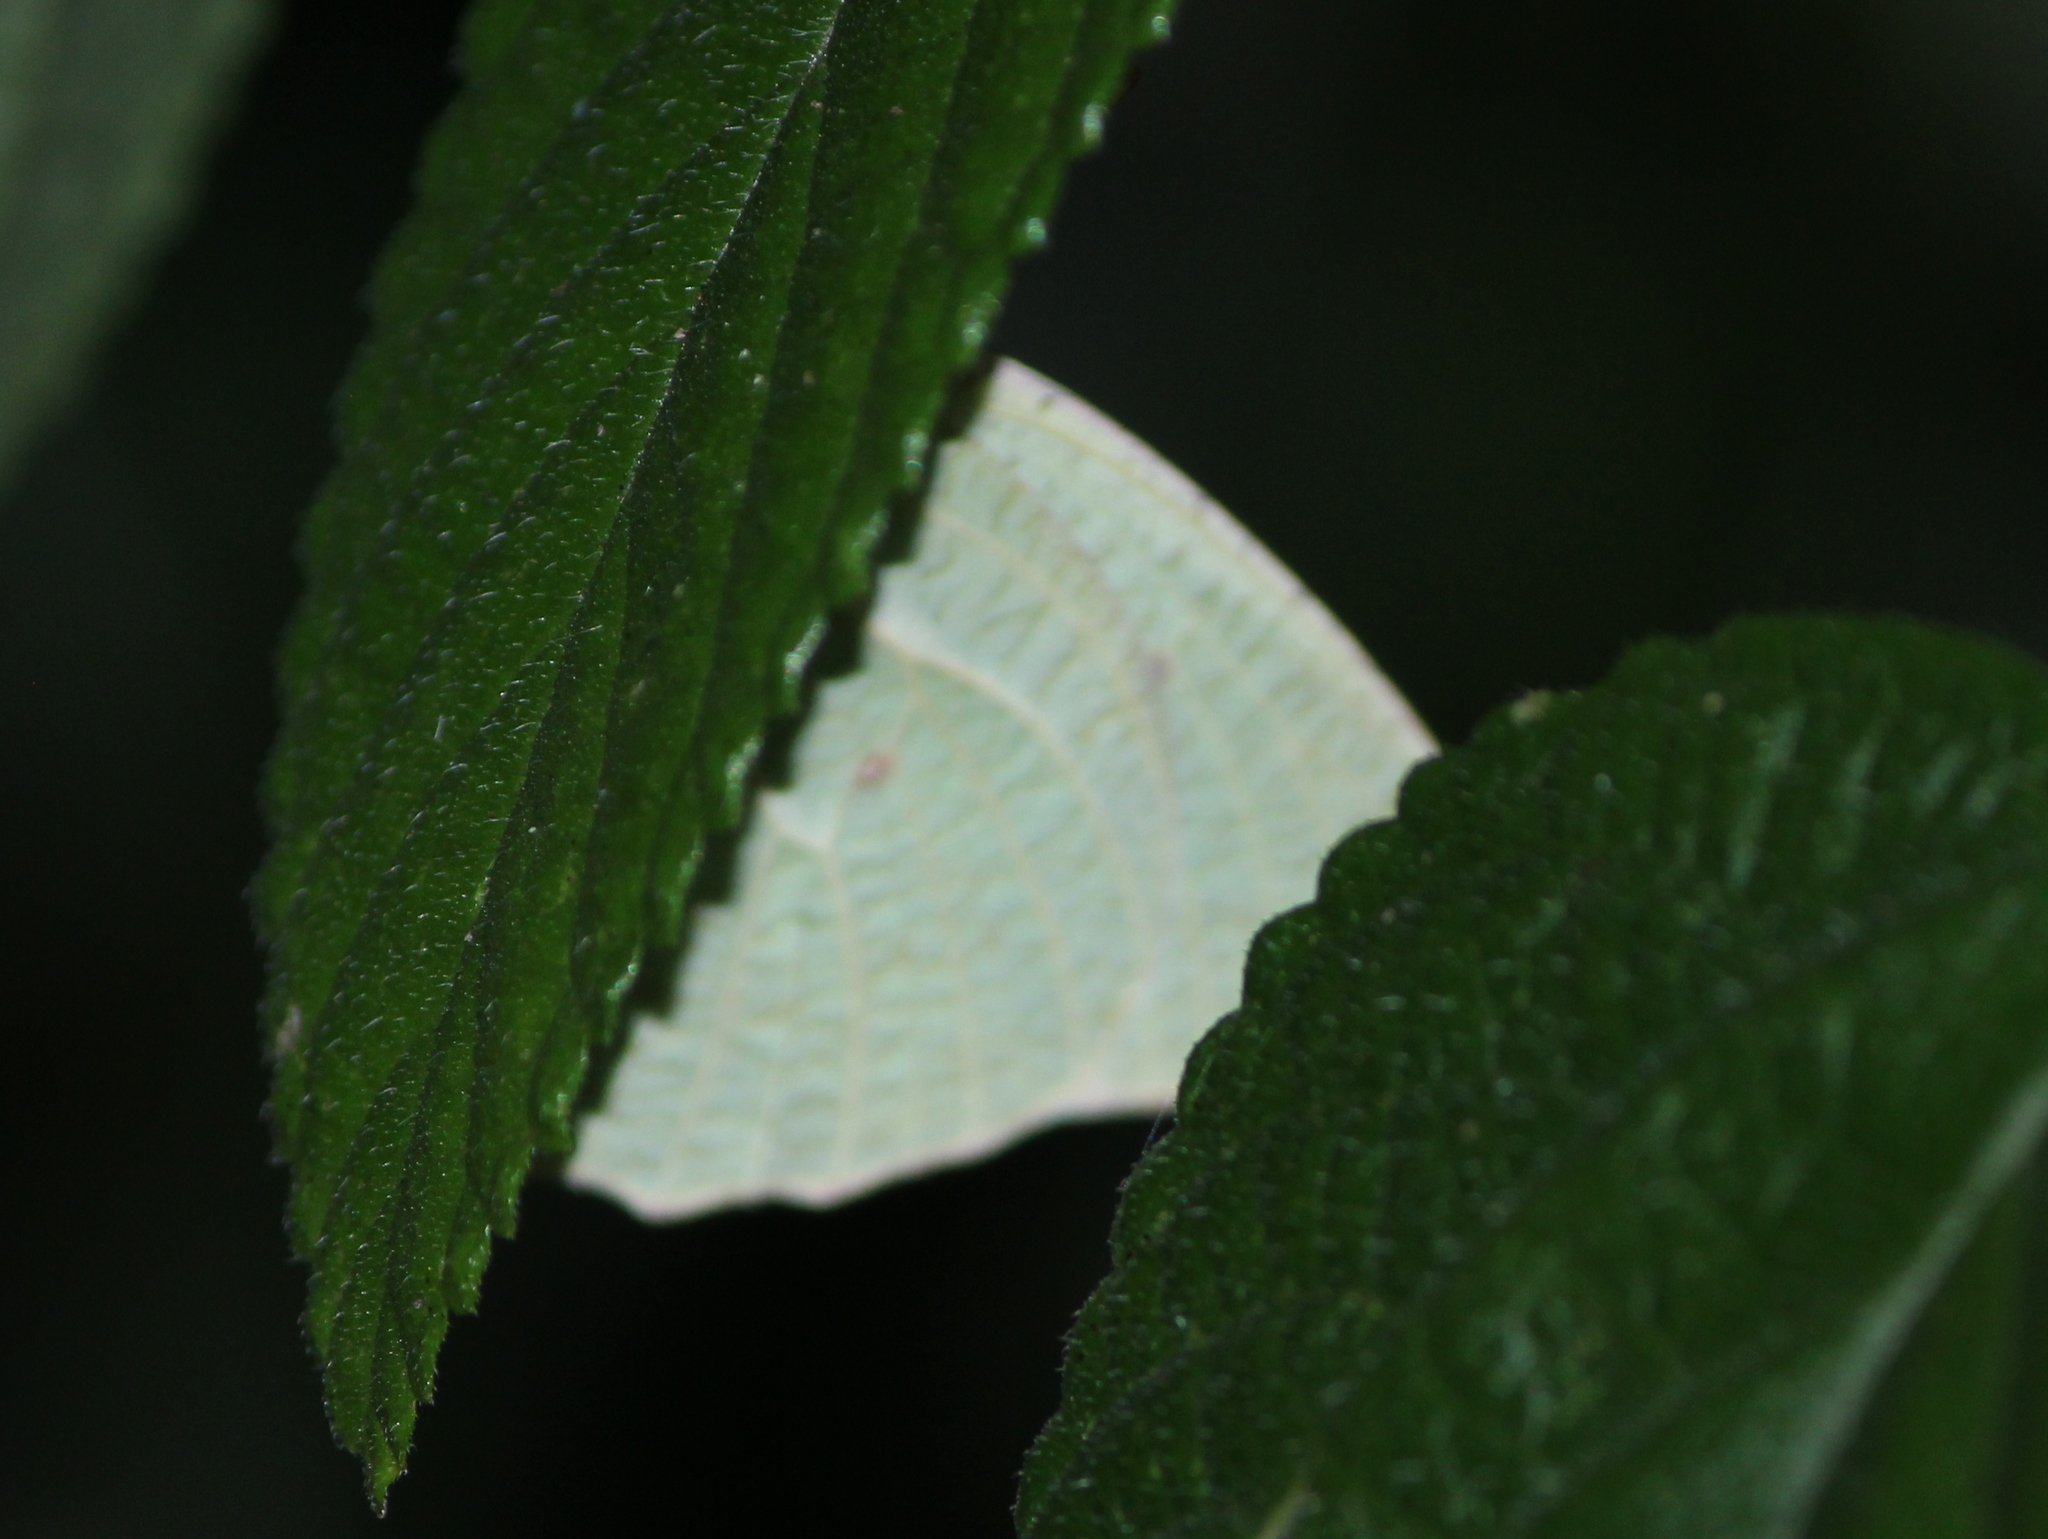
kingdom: Animalia
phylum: Arthropoda
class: Insecta
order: Lepidoptera
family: Pieridae
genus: Catopsilia
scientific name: Catopsilia pyranthe
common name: Mottled emigrant
